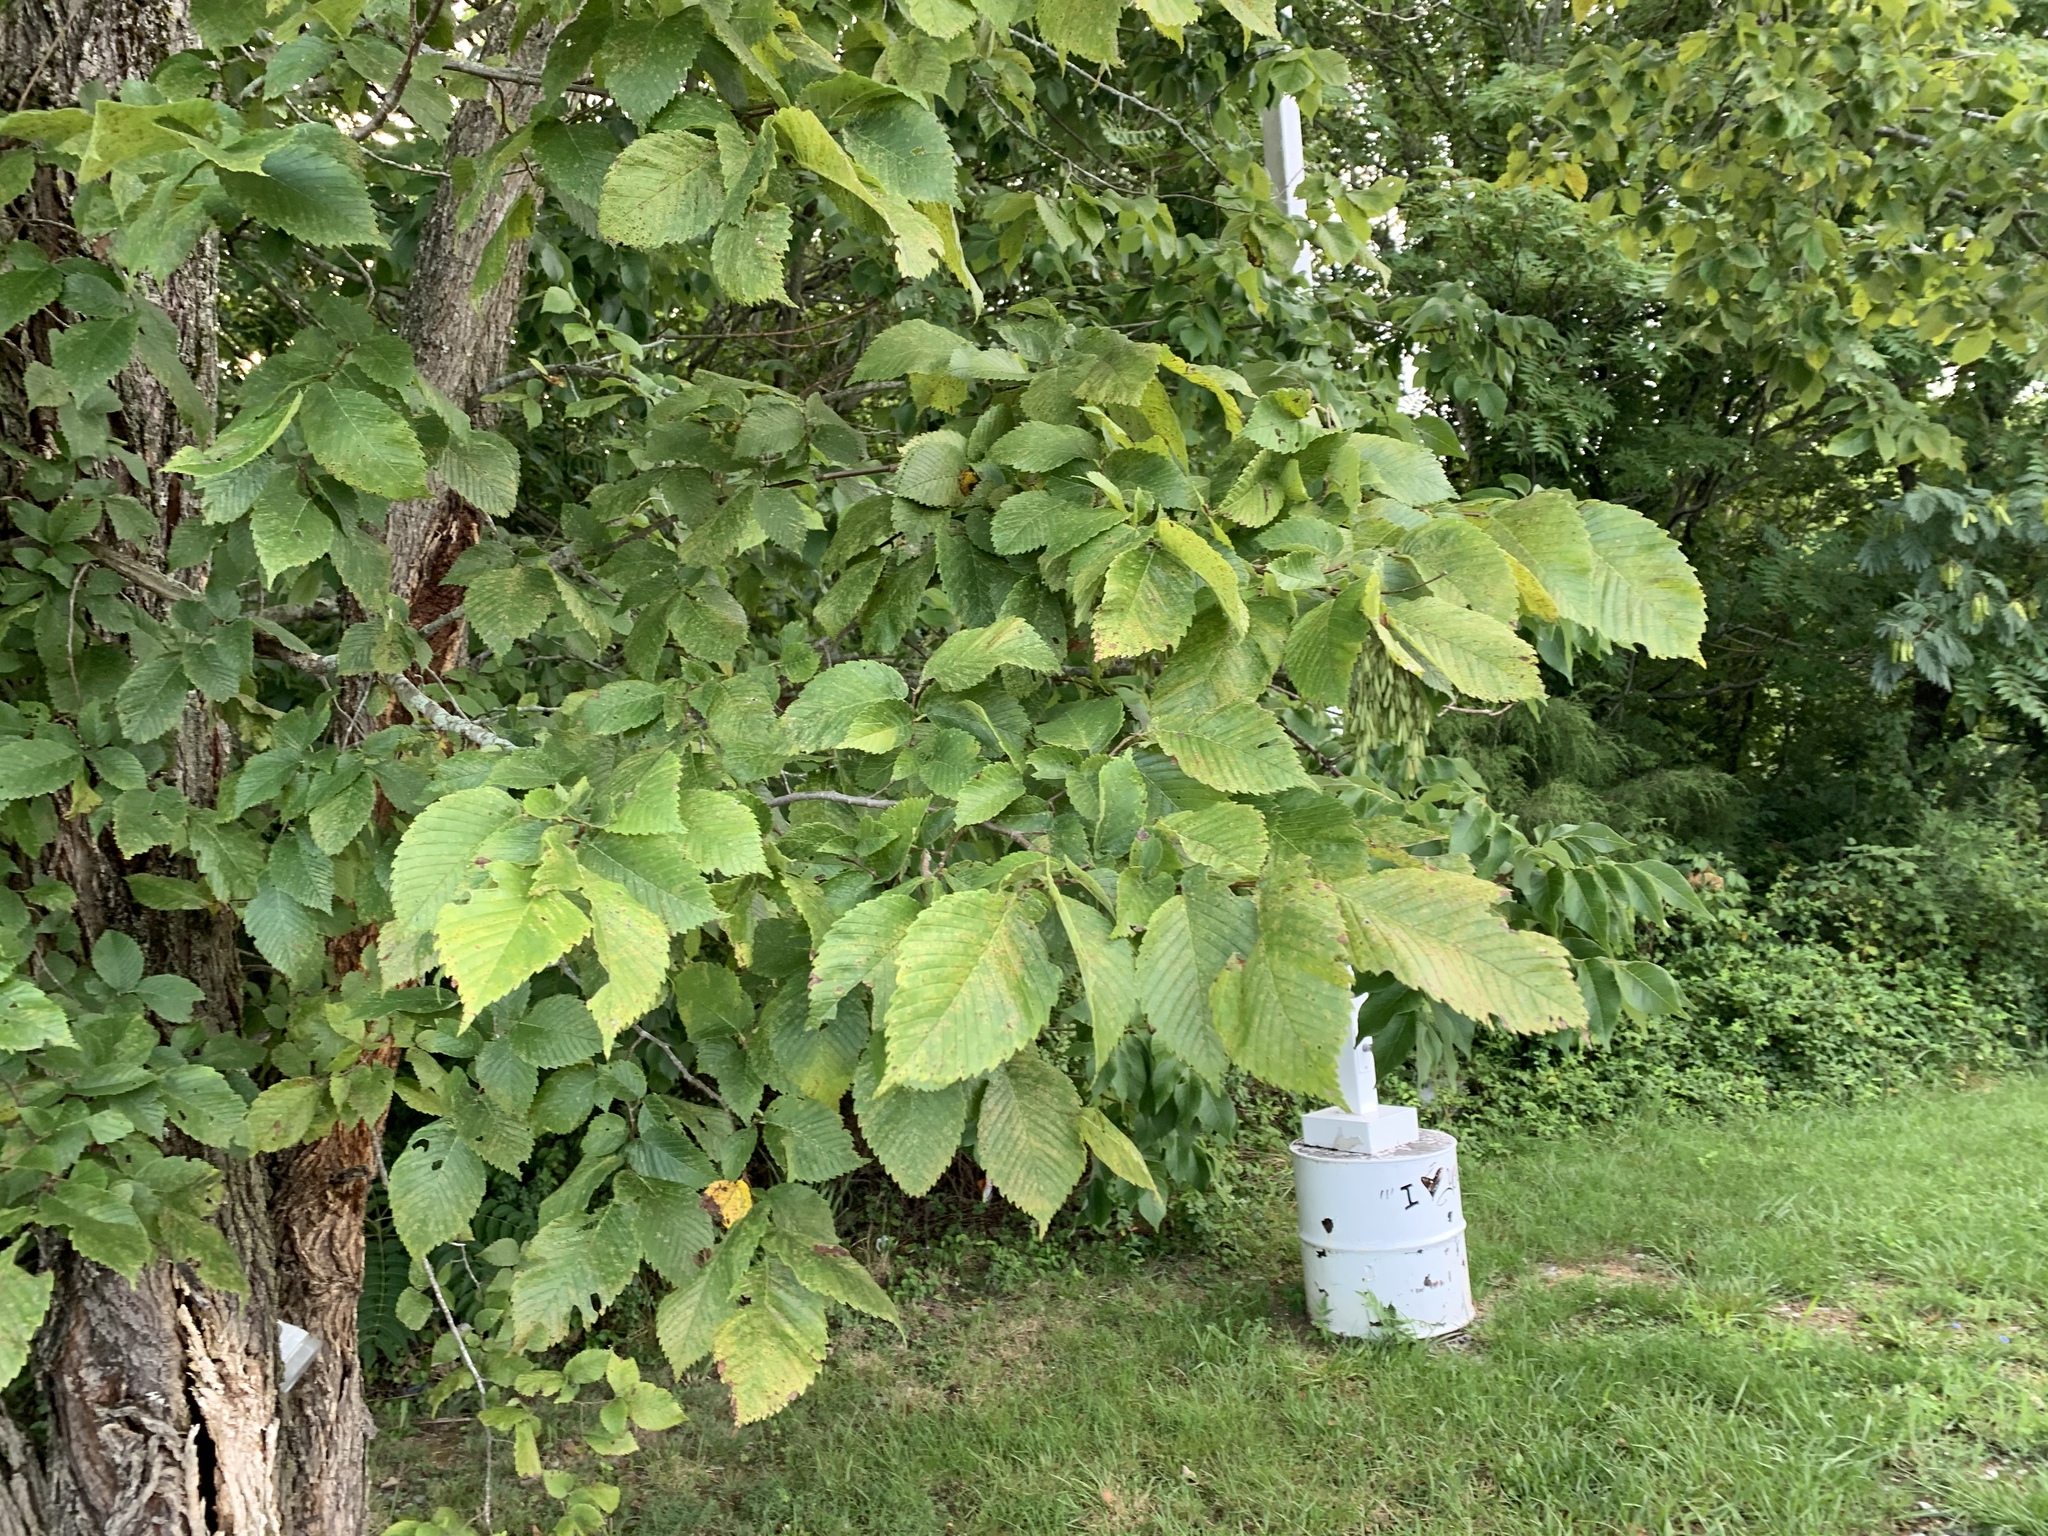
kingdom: Plantae
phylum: Tracheophyta
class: Magnoliopsida
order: Rosales
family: Ulmaceae
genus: Ulmus
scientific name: Ulmus americana
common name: American elm
